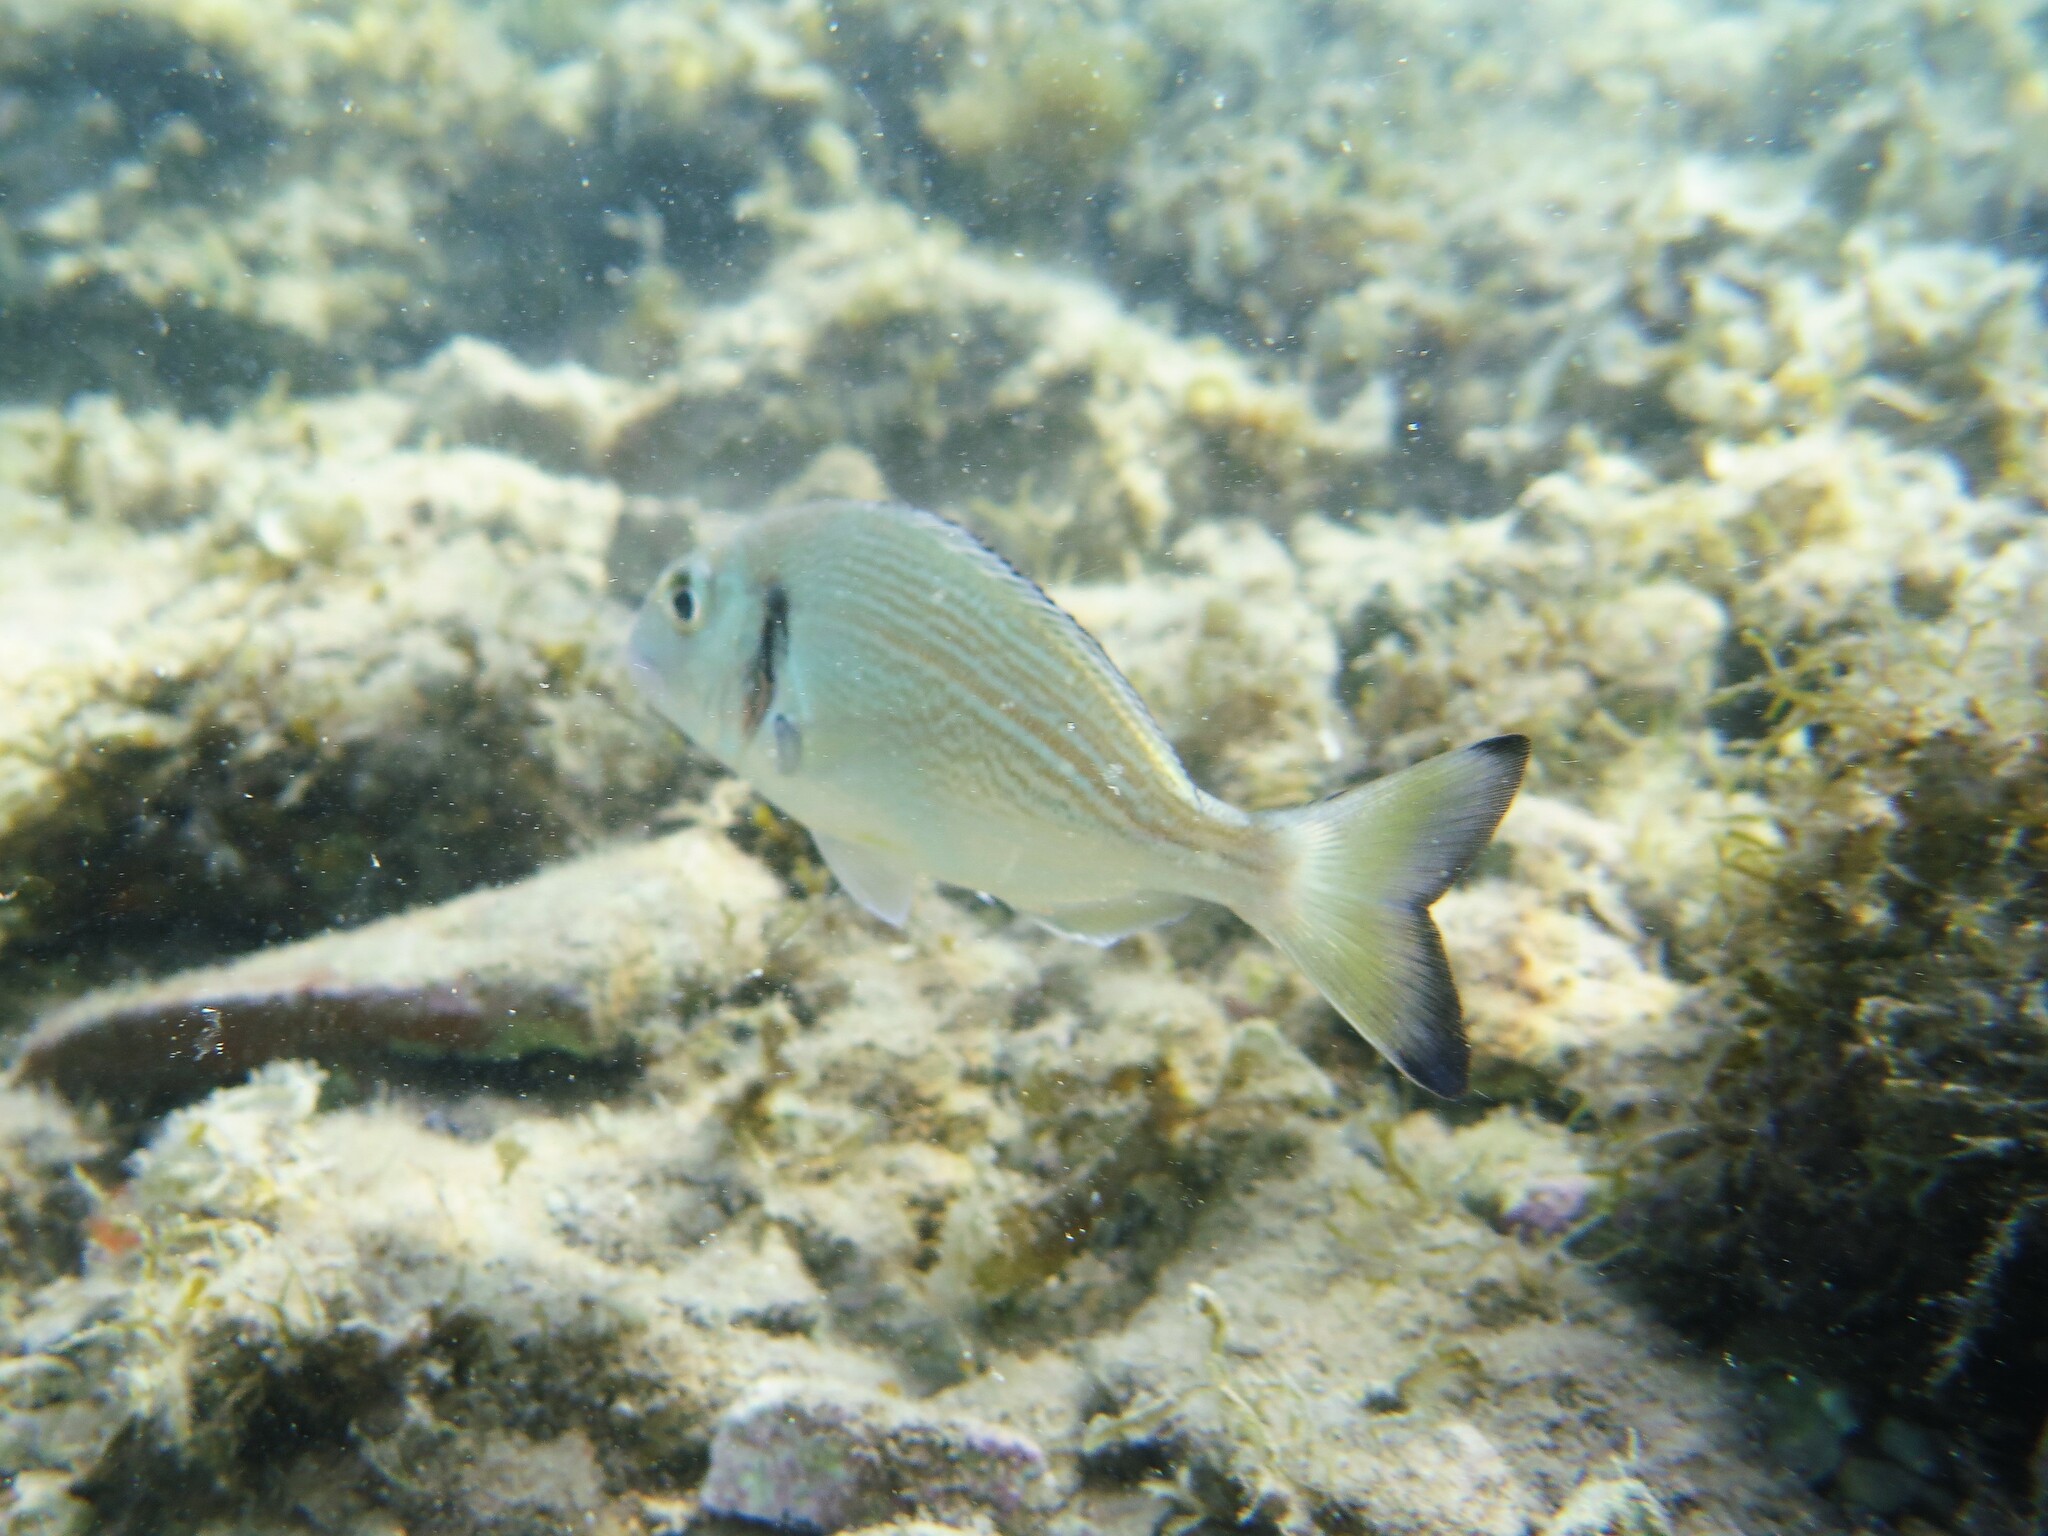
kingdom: Animalia
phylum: Chordata
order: Perciformes
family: Sparidae
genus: Sparus
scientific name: Sparus aurata
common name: Gilthead
